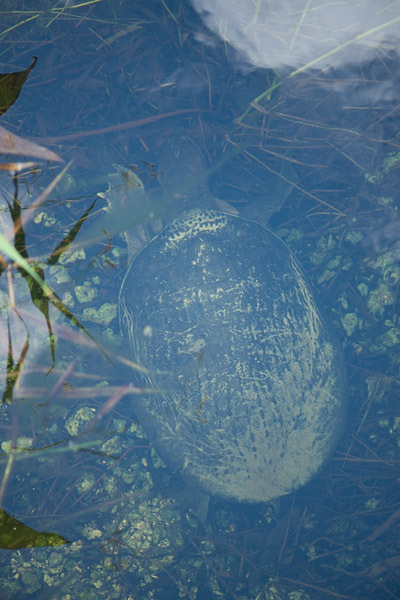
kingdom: Animalia
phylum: Chordata
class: Testudines
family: Trionychidae
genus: Apalone
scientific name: Apalone ferox
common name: Florida softshell turtle
